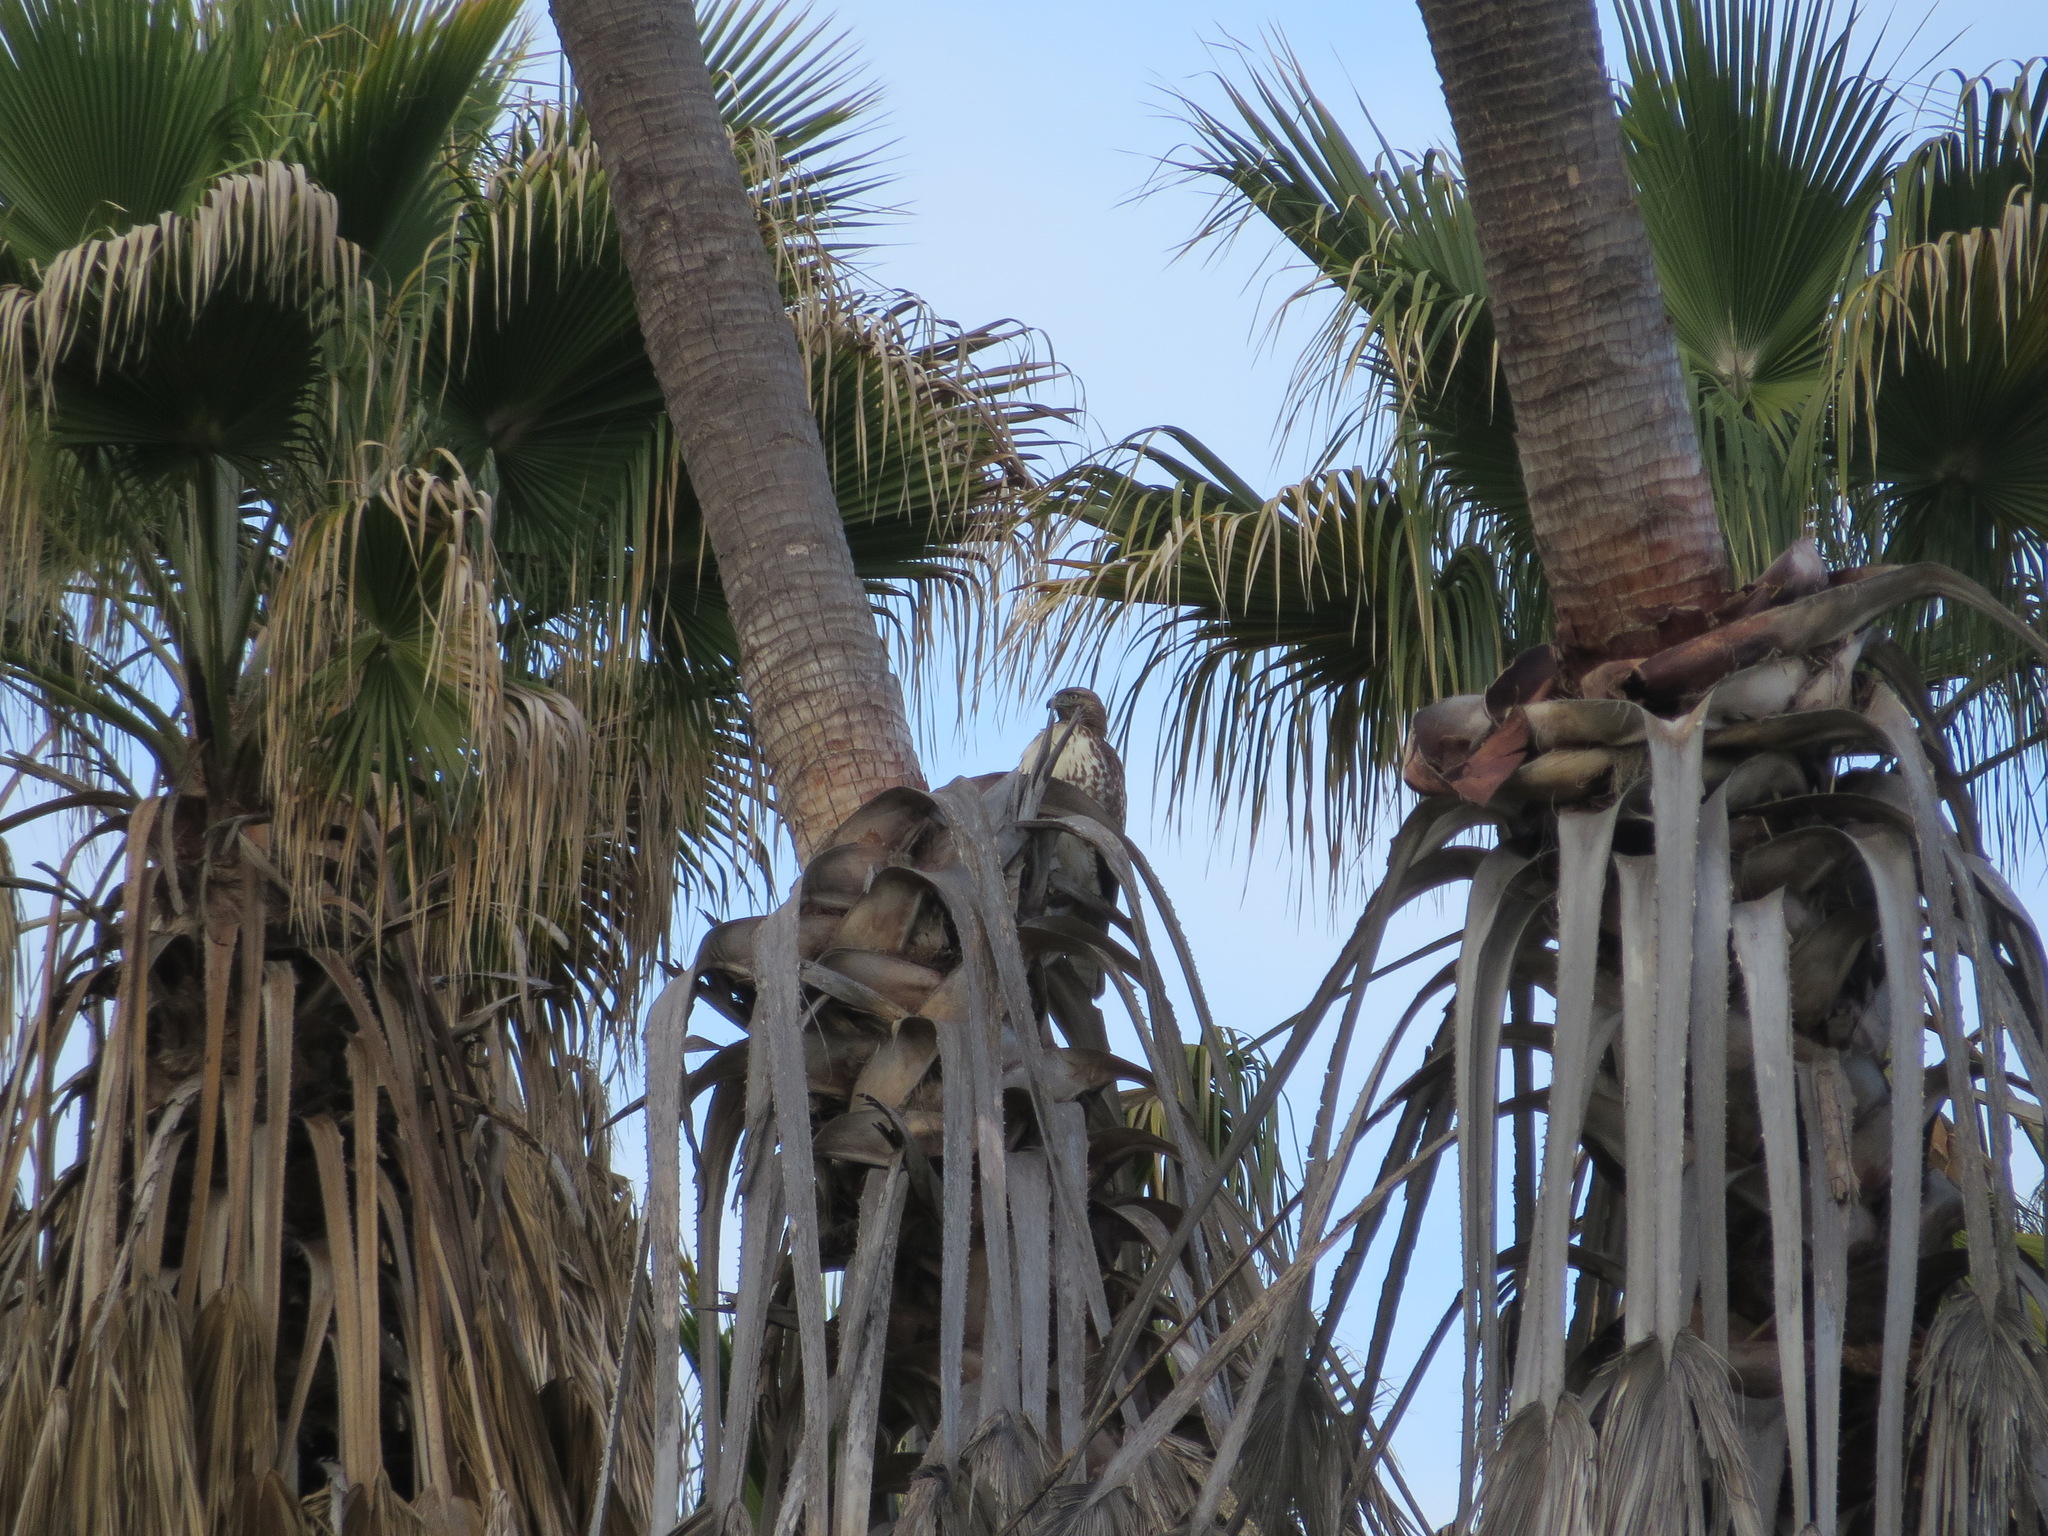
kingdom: Animalia
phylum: Chordata
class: Aves
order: Accipitriformes
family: Accipitridae
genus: Buteo
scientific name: Buteo jamaicensis
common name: Red-tailed hawk
